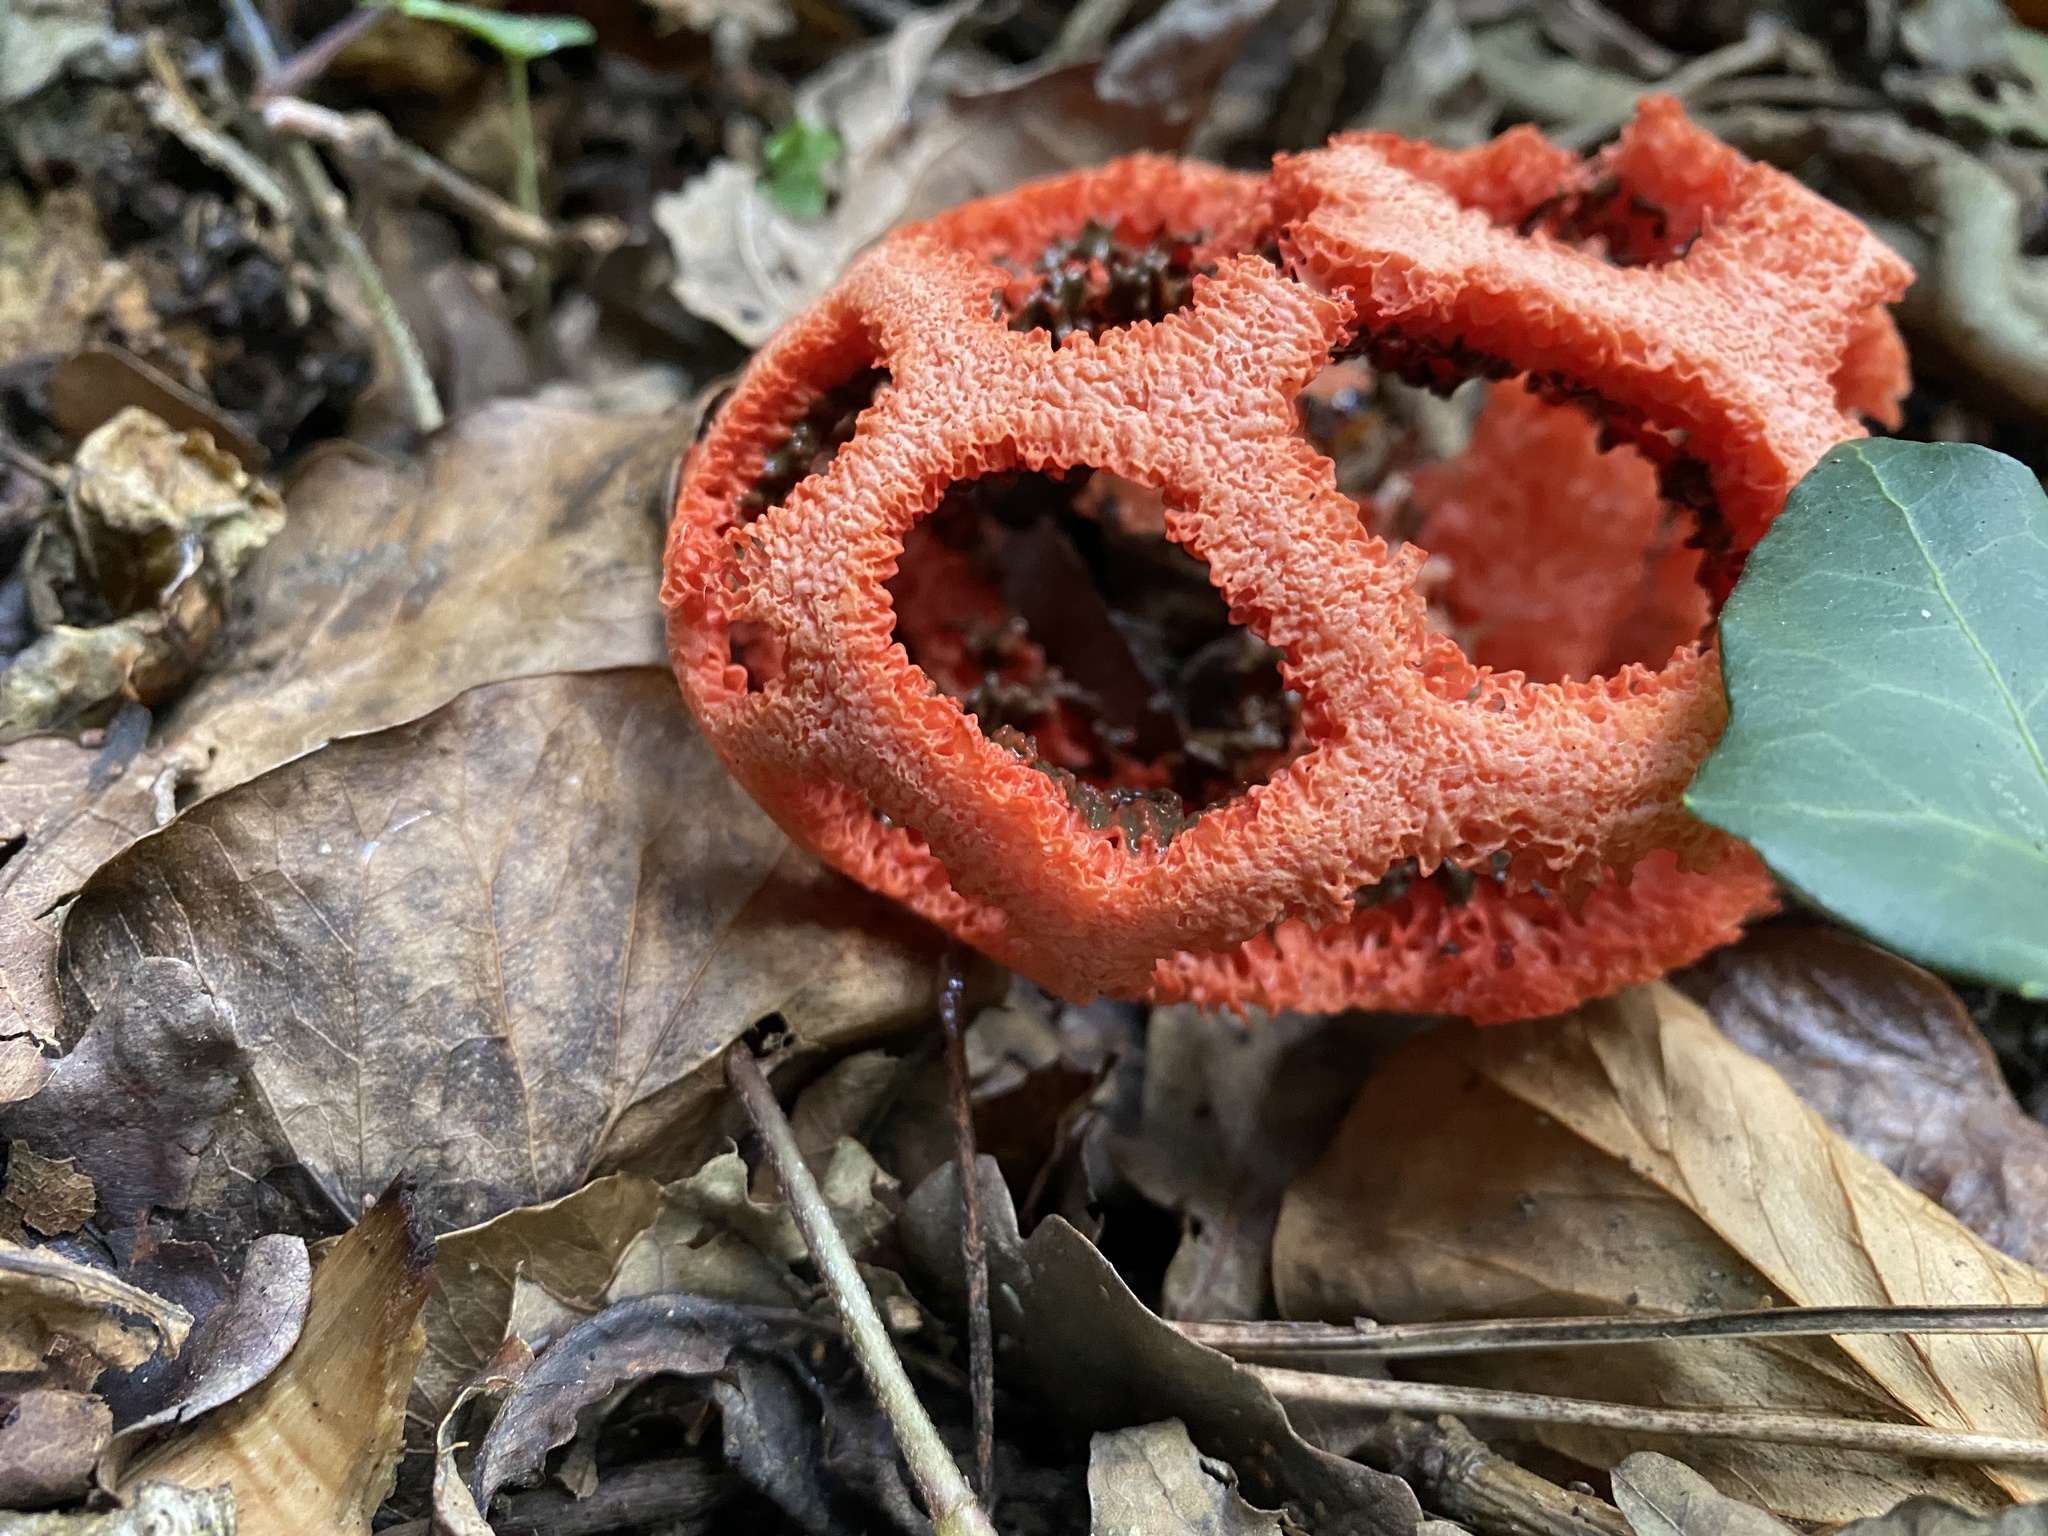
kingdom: Fungi
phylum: Basidiomycota
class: Agaricomycetes
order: Phallales
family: Phallaceae
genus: Clathrus
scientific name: Clathrus ruber
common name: Red cage
